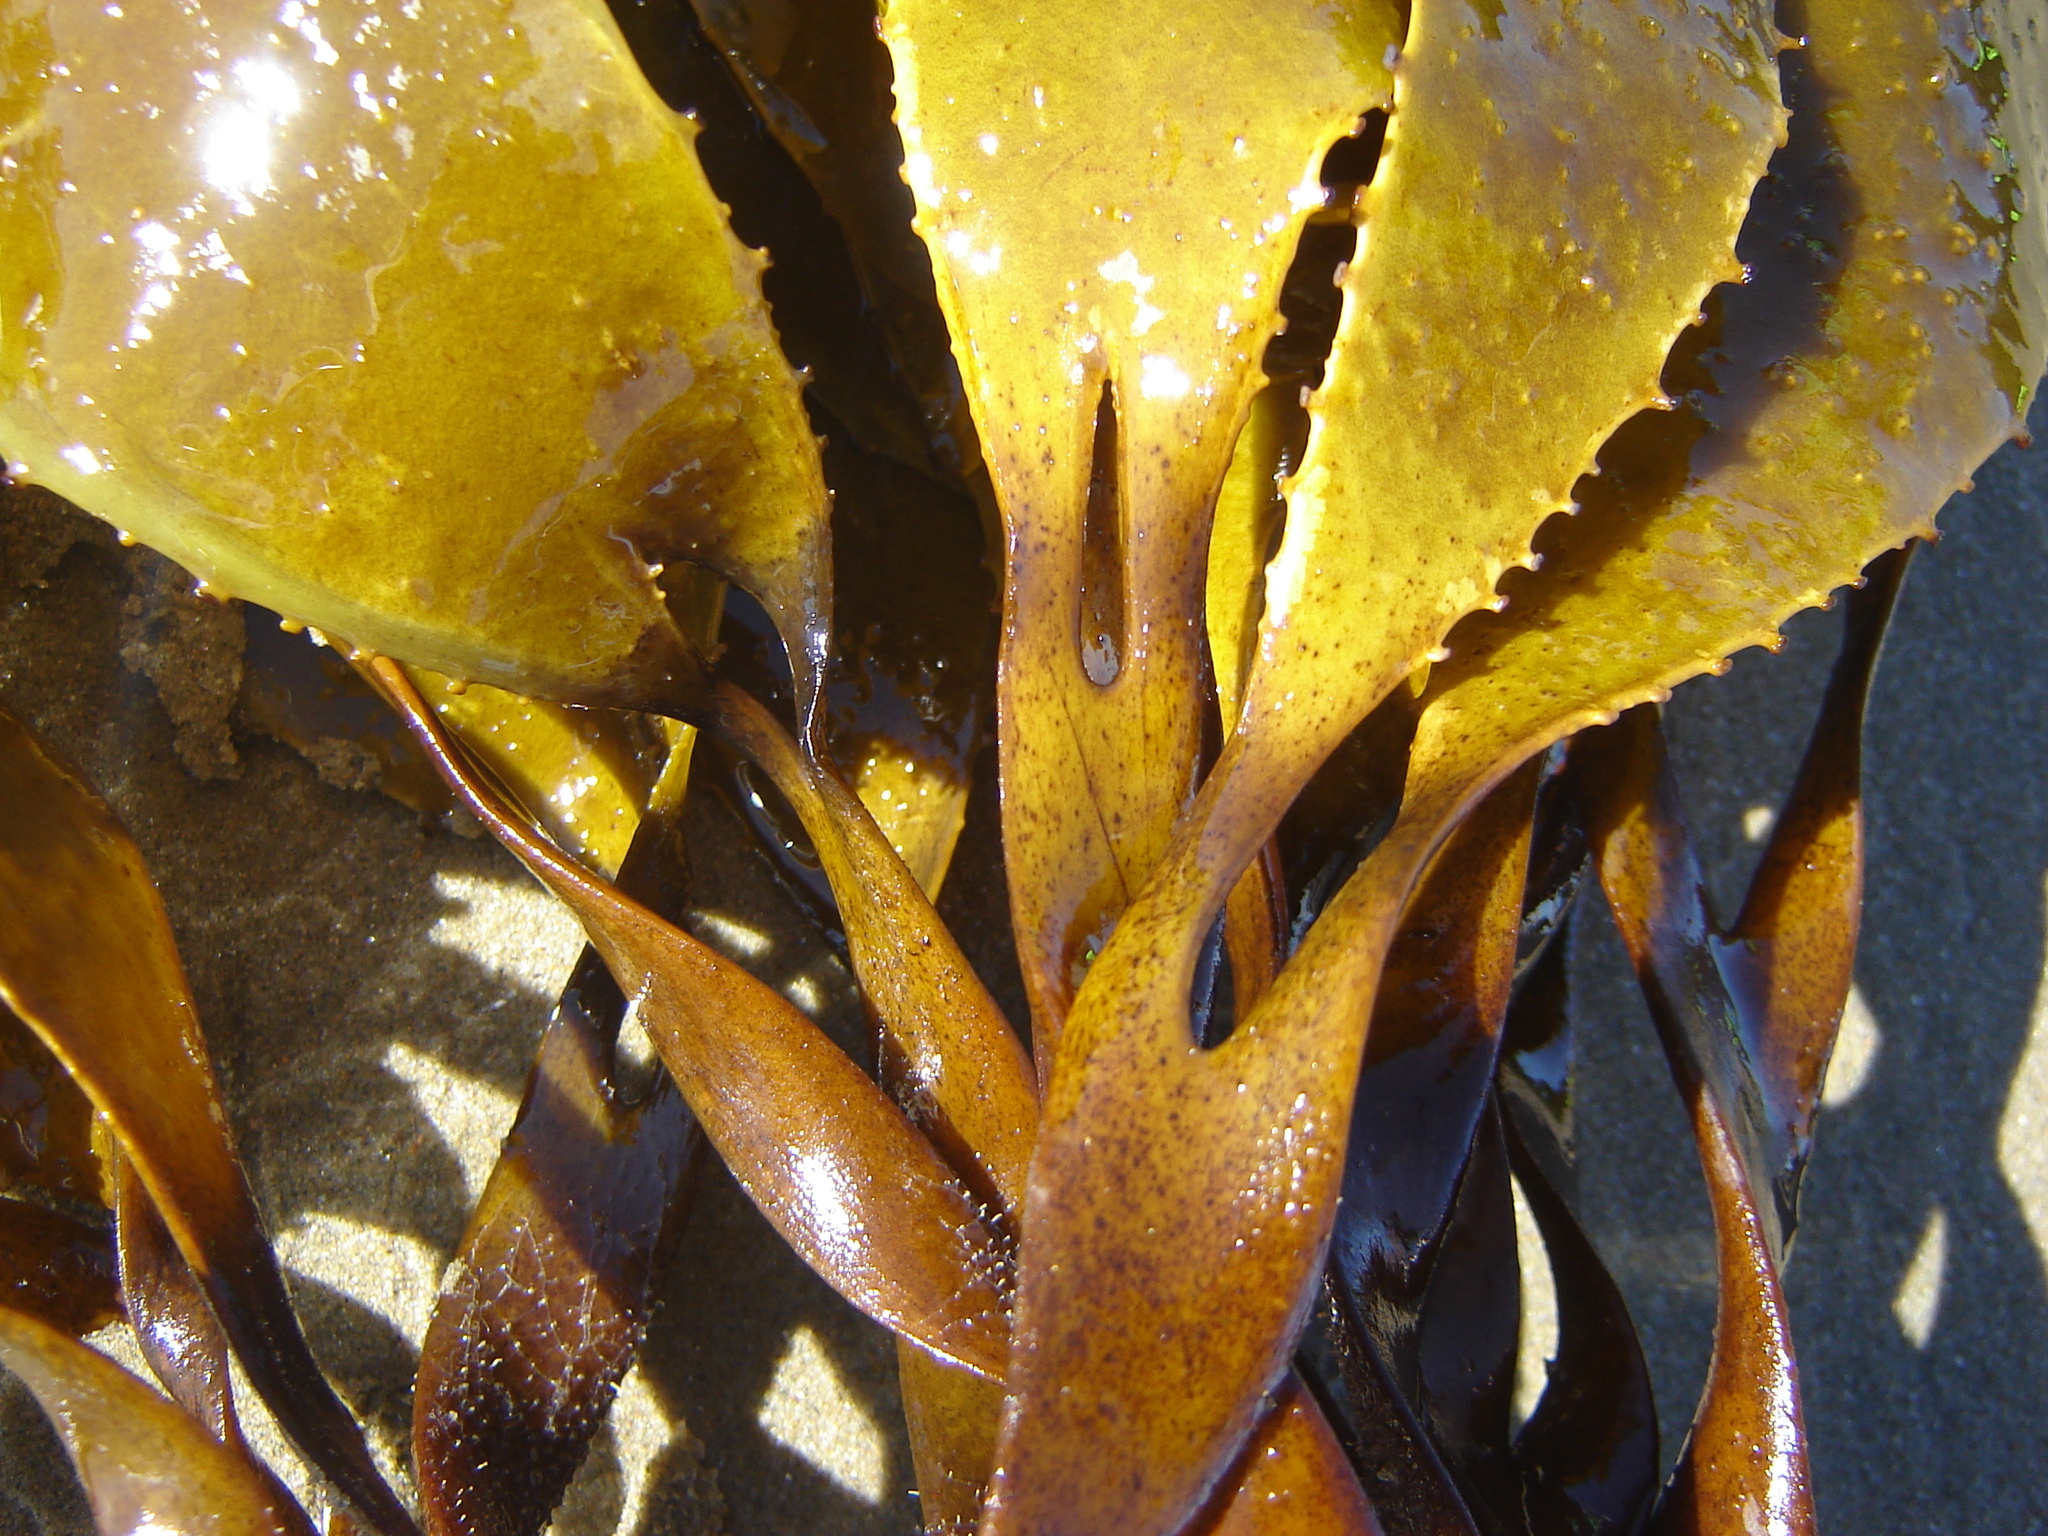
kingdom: Chromista
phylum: Ochrophyta
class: Phaeophyceae
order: Laminariales
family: Lessoniaceae
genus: Lessonia
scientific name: Lessonia
